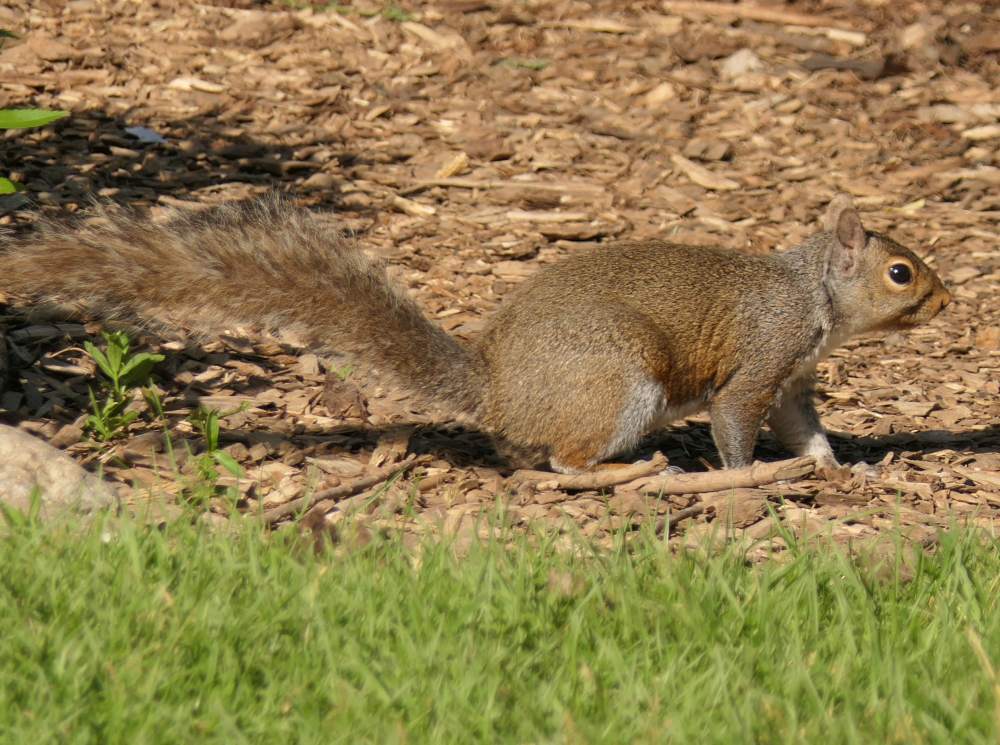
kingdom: Animalia
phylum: Chordata
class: Mammalia
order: Rodentia
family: Sciuridae
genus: Sciurus
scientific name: Sciurus carolinensis
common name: Eastern gray squirrel
